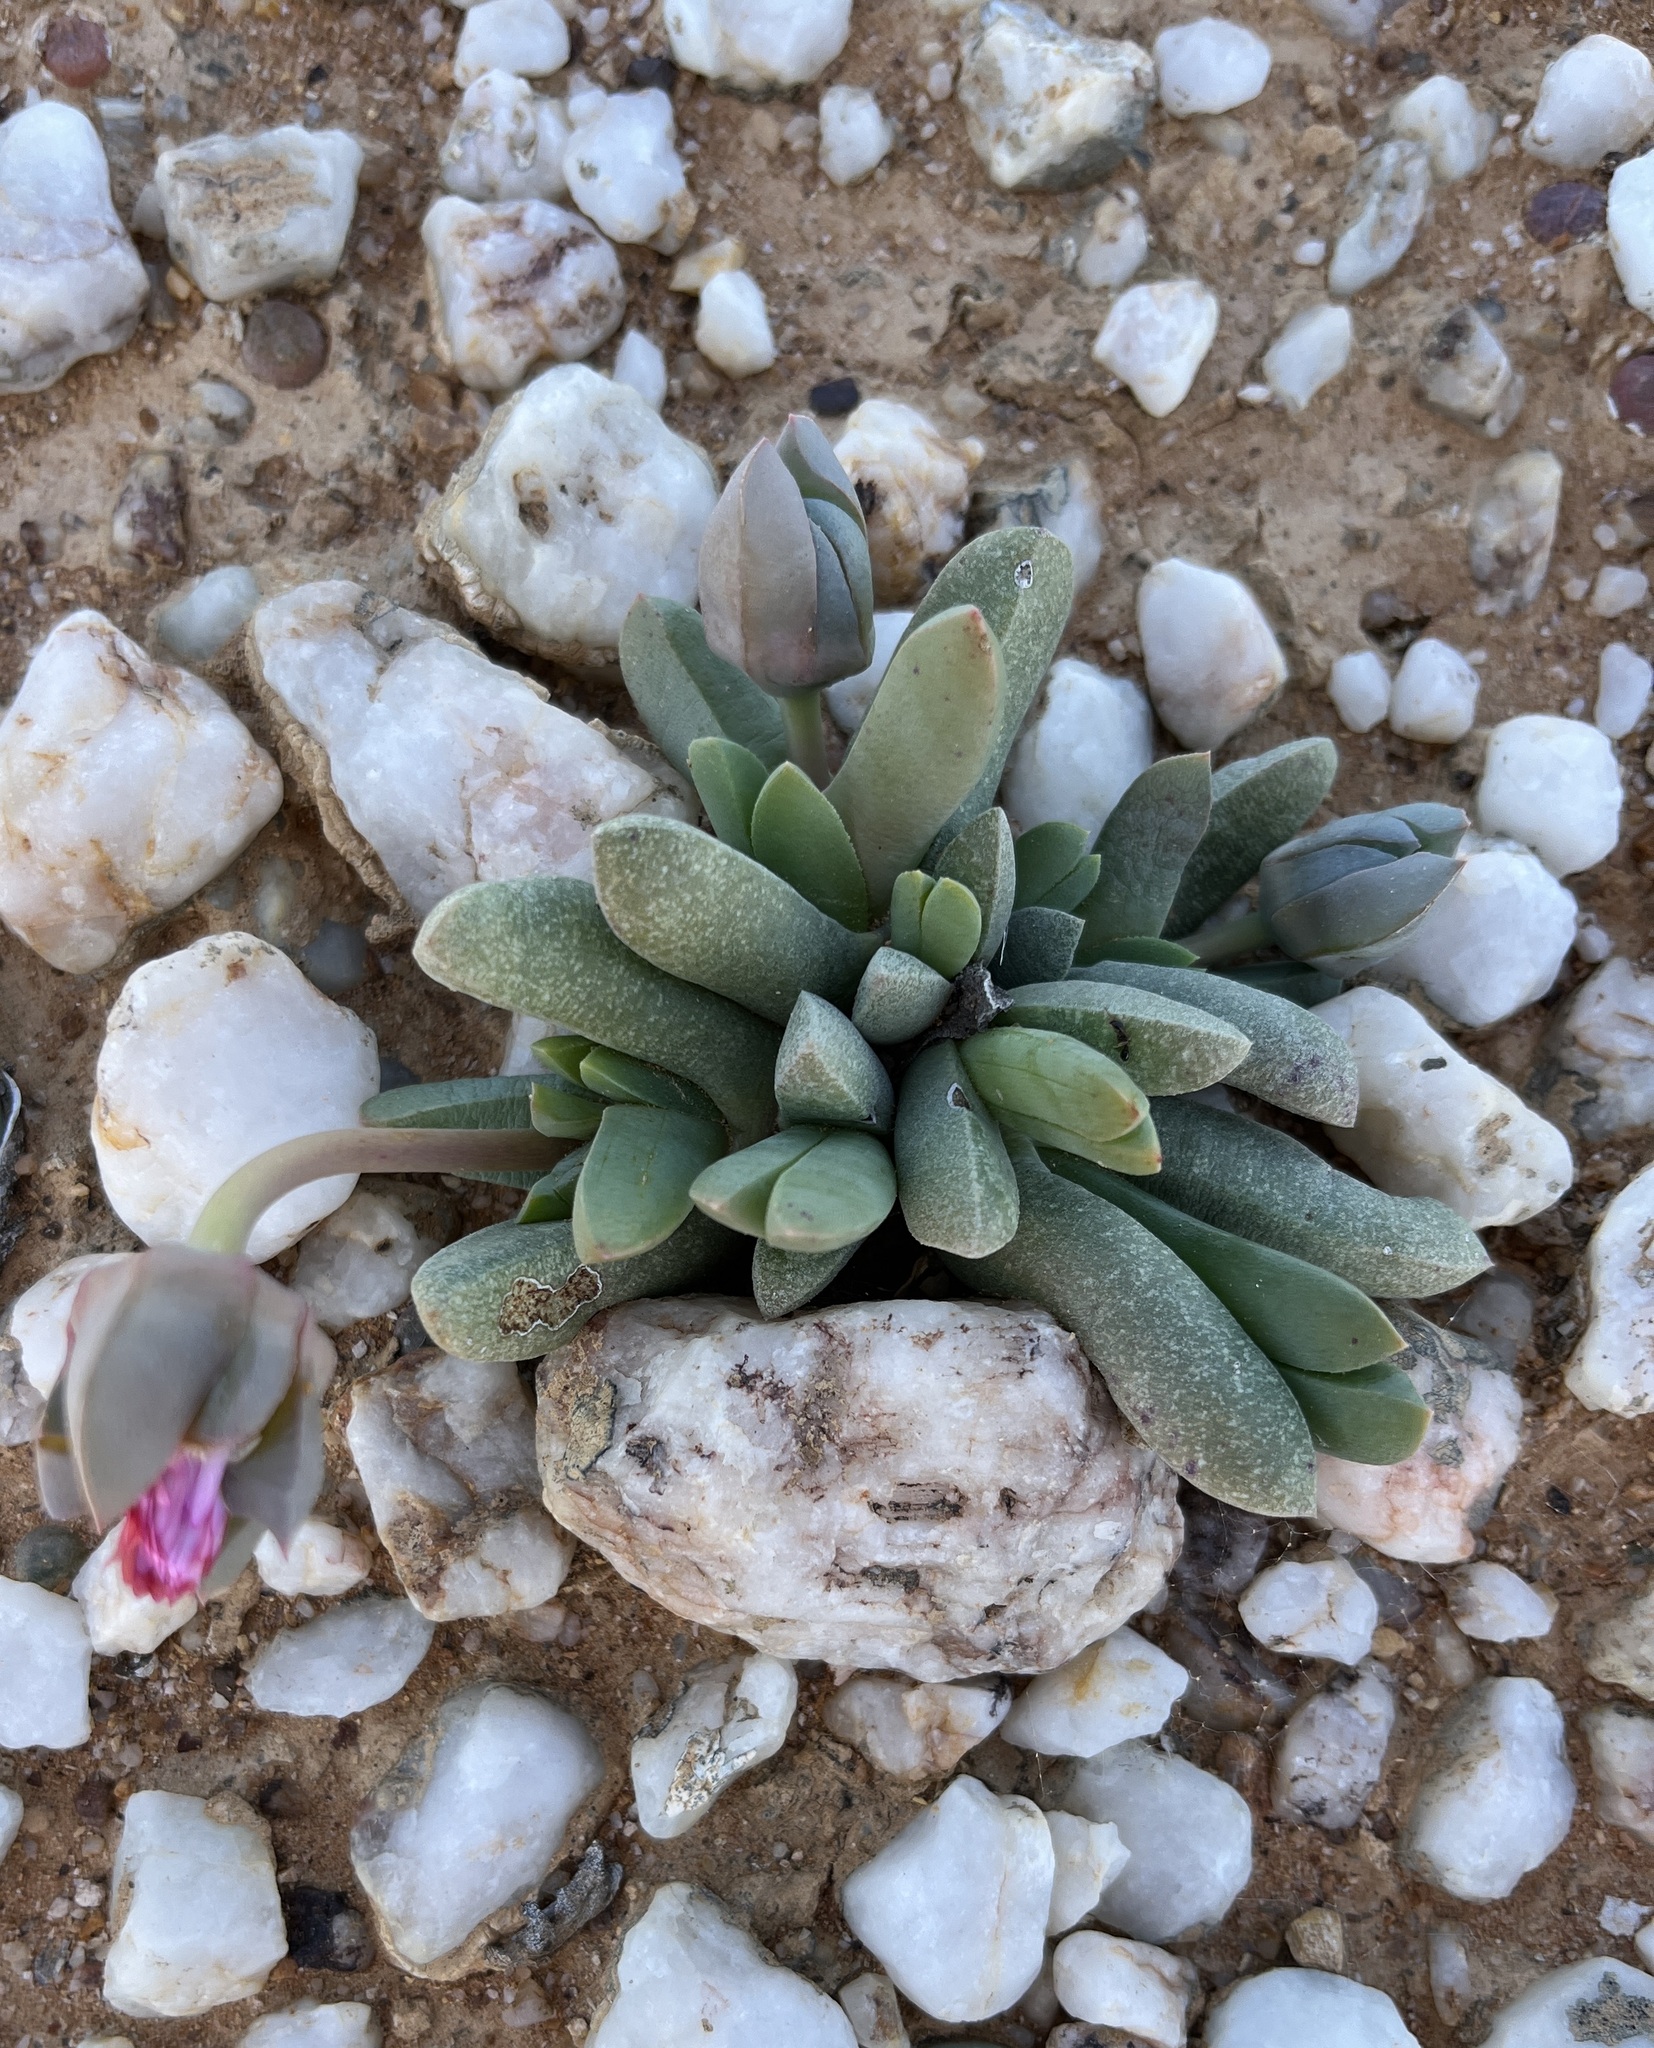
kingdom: Plantae
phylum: Tracheophyta
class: Magnoliopsida
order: Caryophyllales
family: Aizoaceae
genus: Cephalophyllum
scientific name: Cephalophyllum spissum
